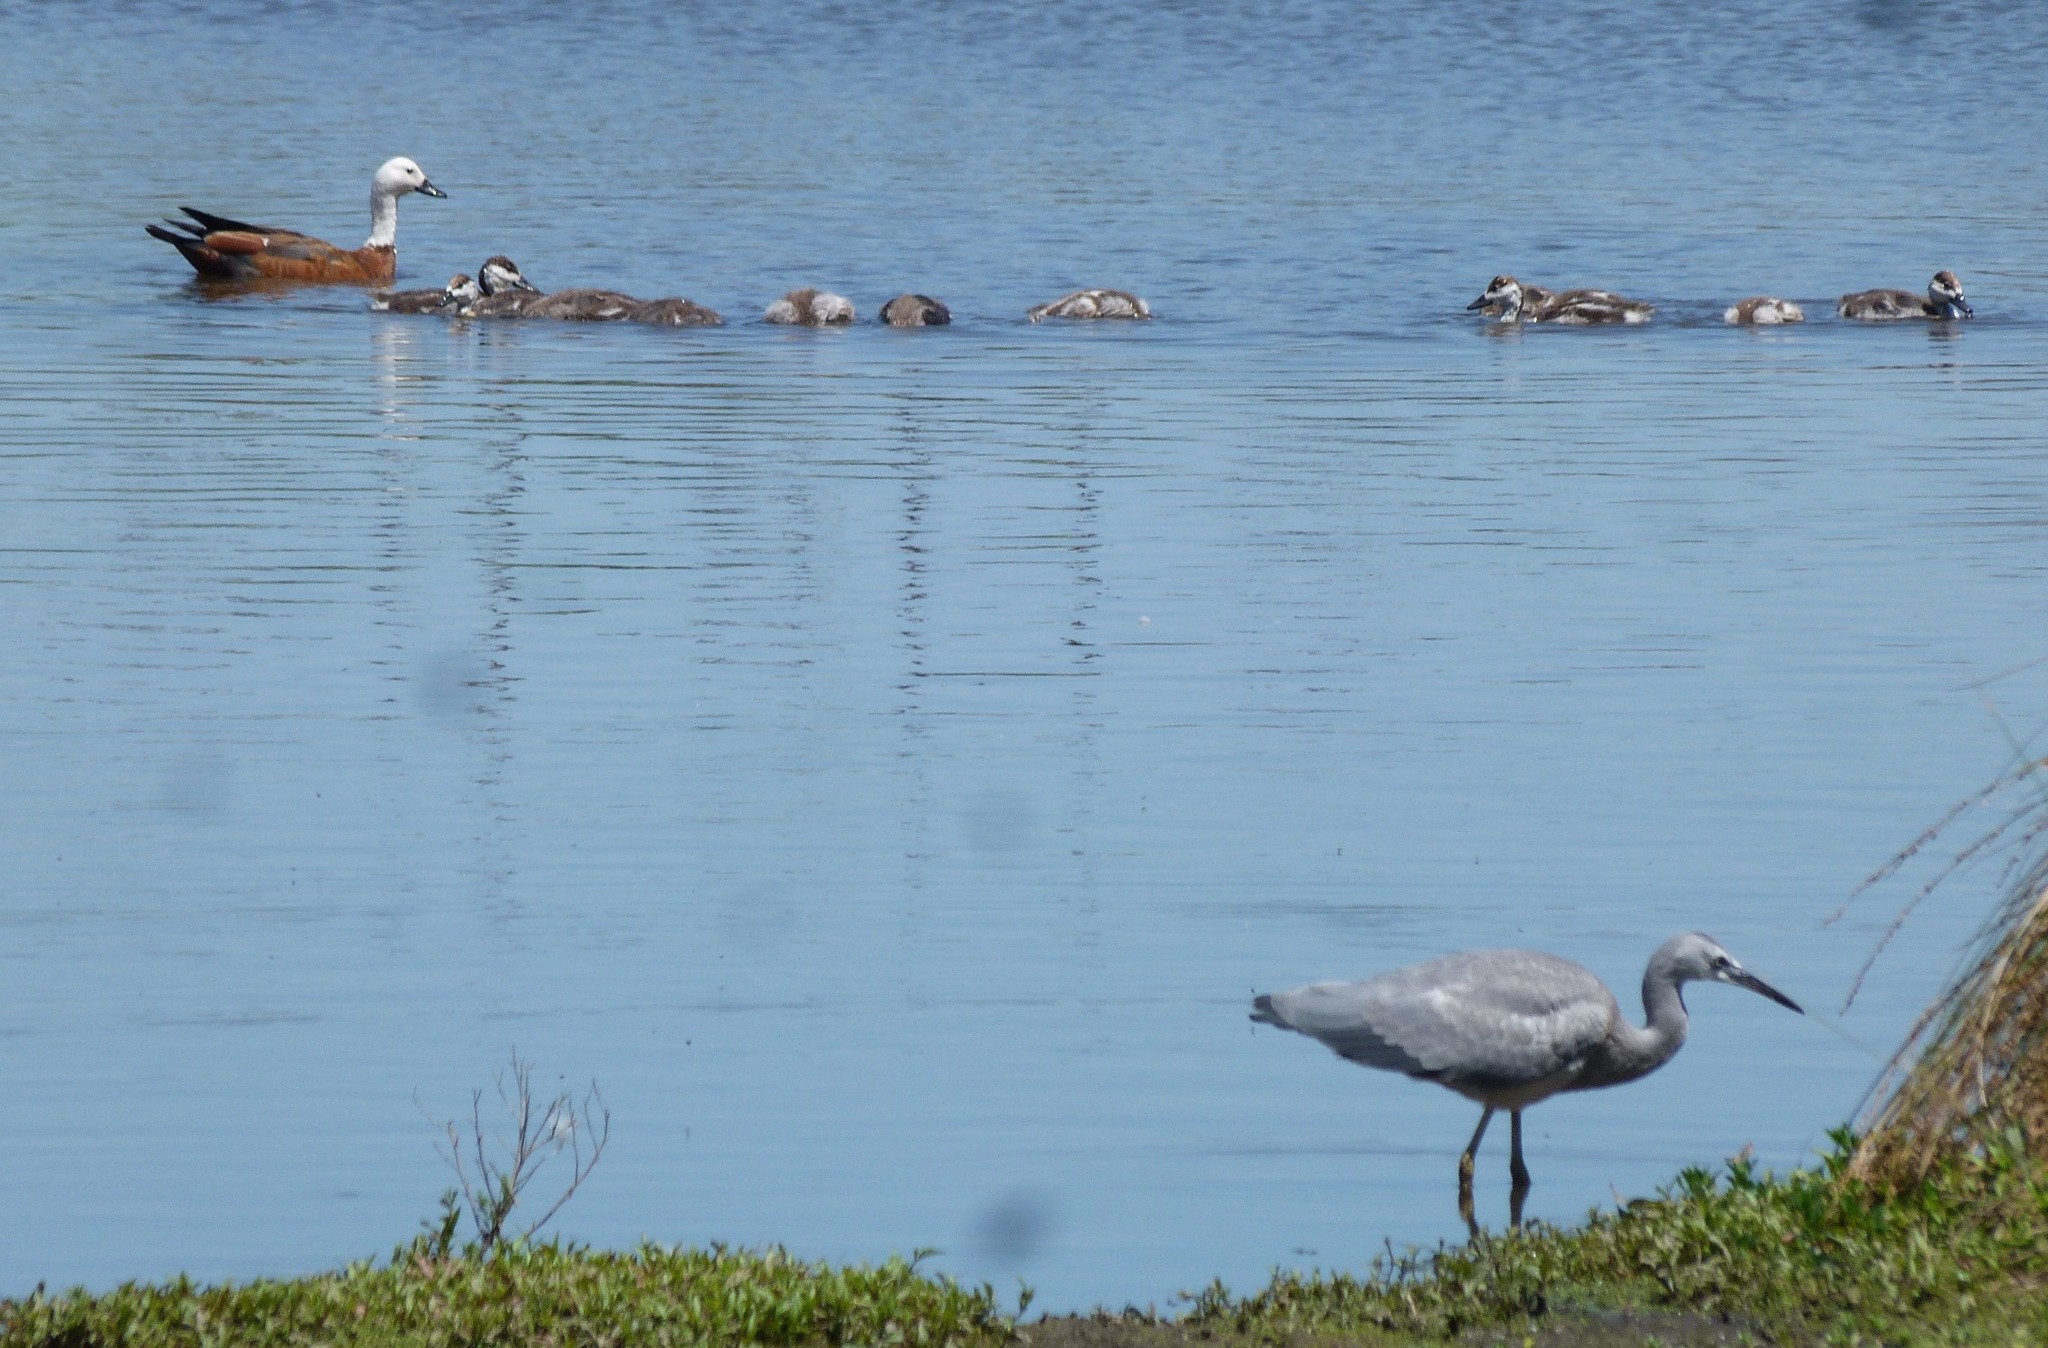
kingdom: Animalia
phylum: Chordata
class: Aves
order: Anseriformes
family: Anatidae
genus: Tadorna
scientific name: Tadorna variegata
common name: Paradise shelduck
